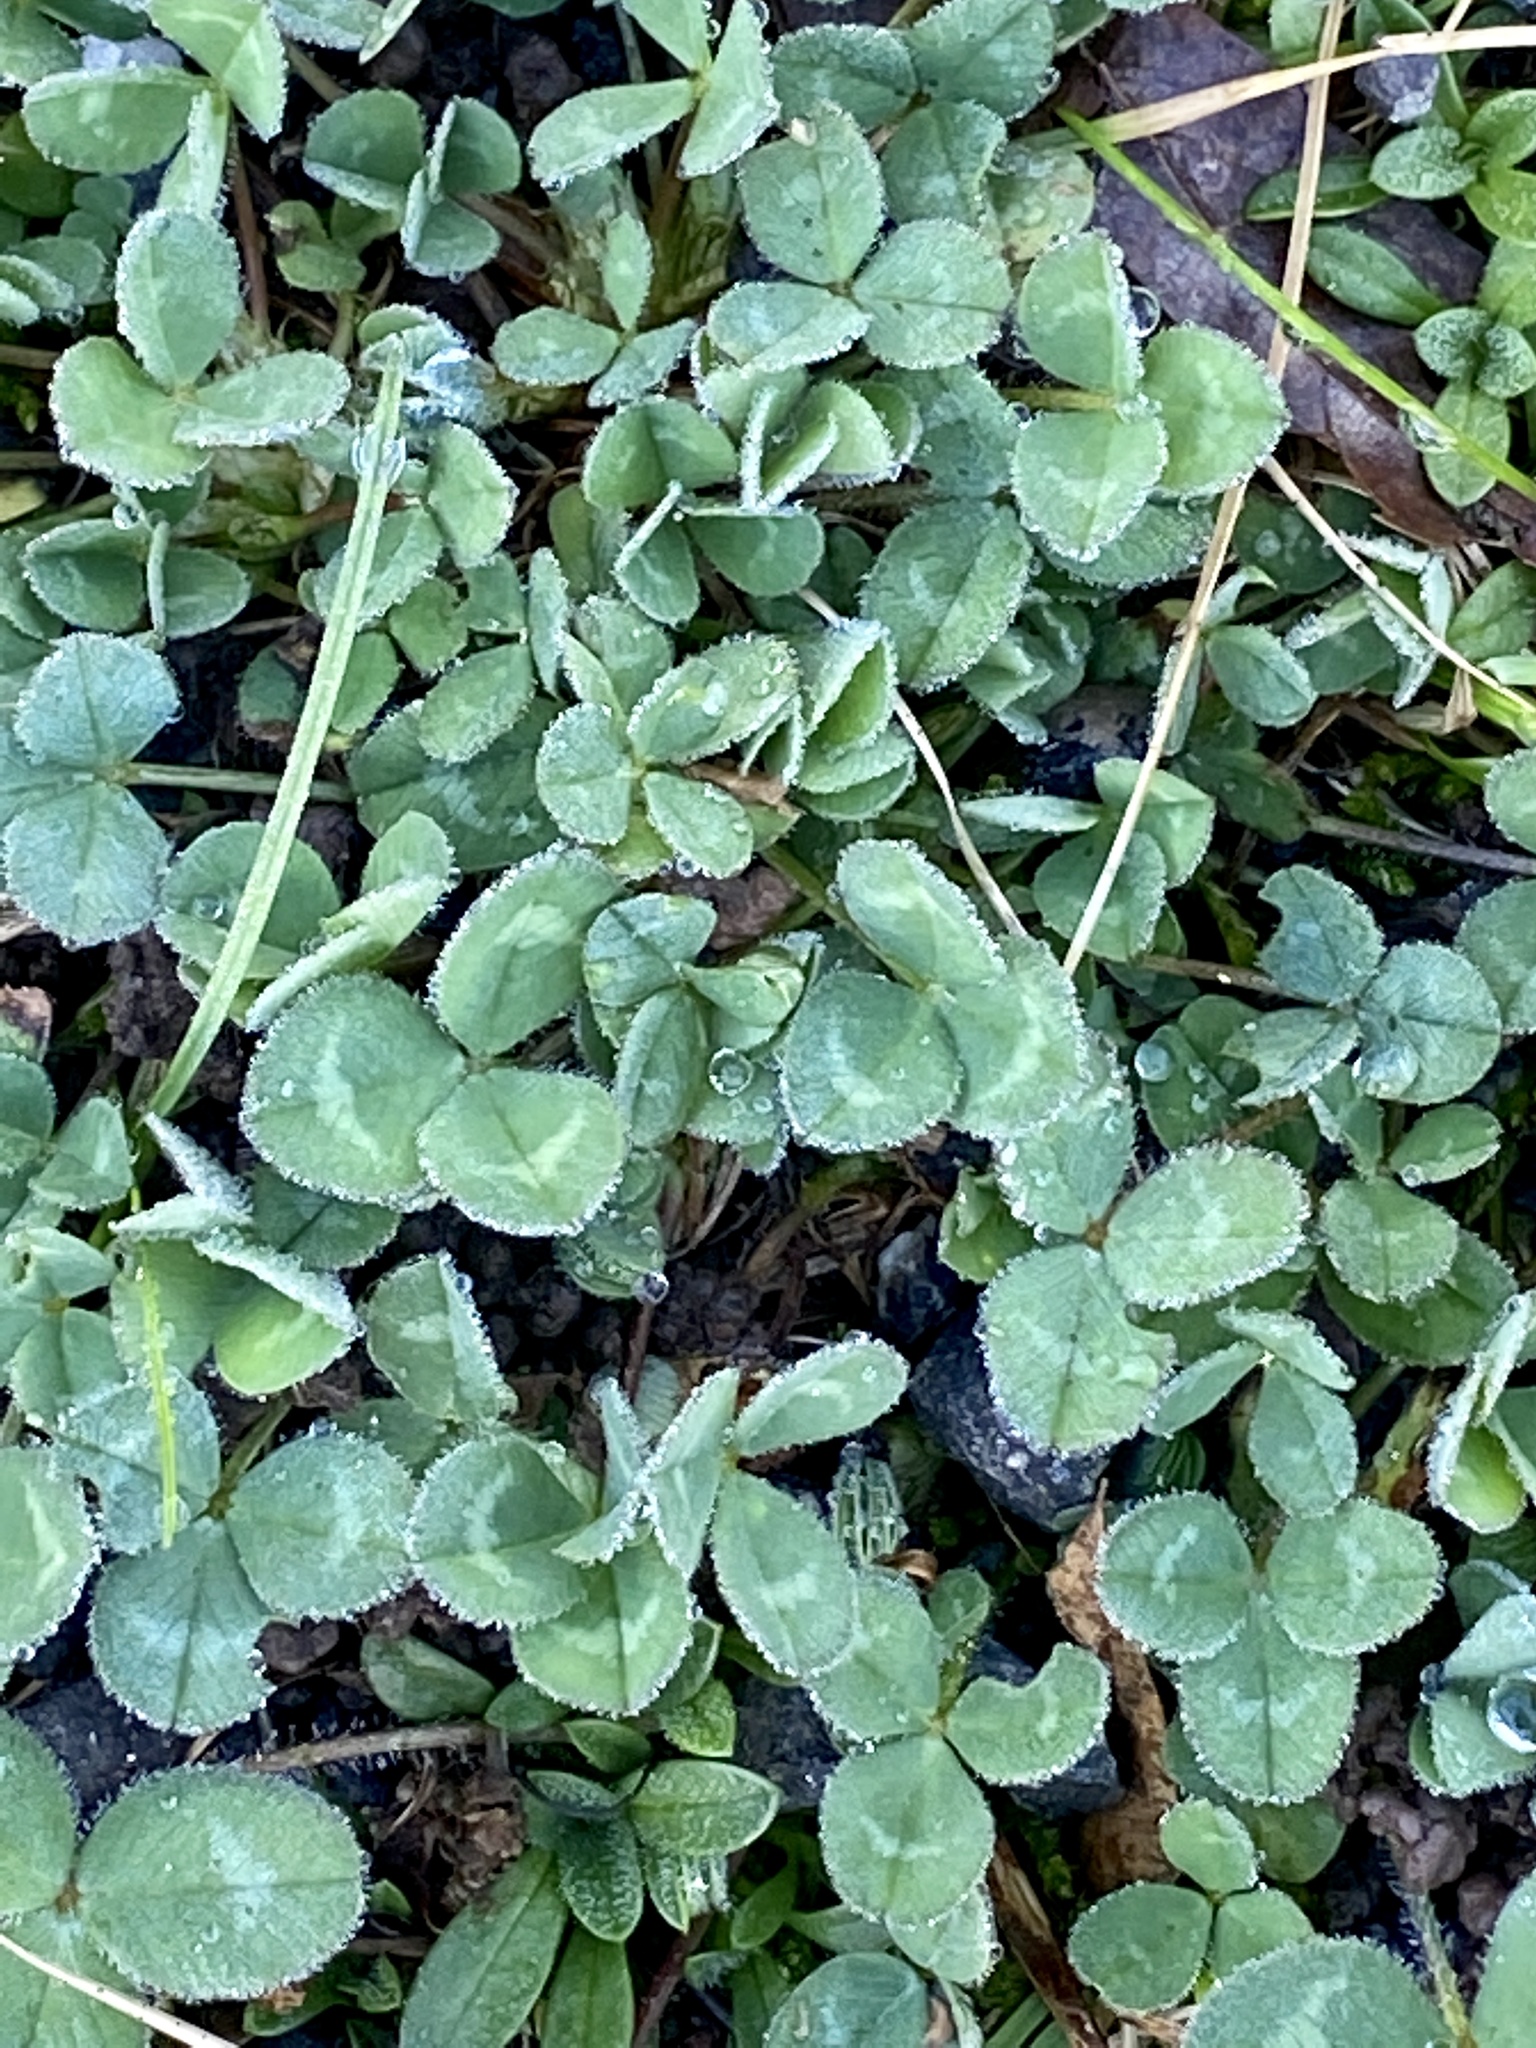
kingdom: Plantae
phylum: Tracheophyta
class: Magnoliopsida
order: Fabales
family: Fabaceae
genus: Trifolium
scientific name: Trifolium repens
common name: White clover
